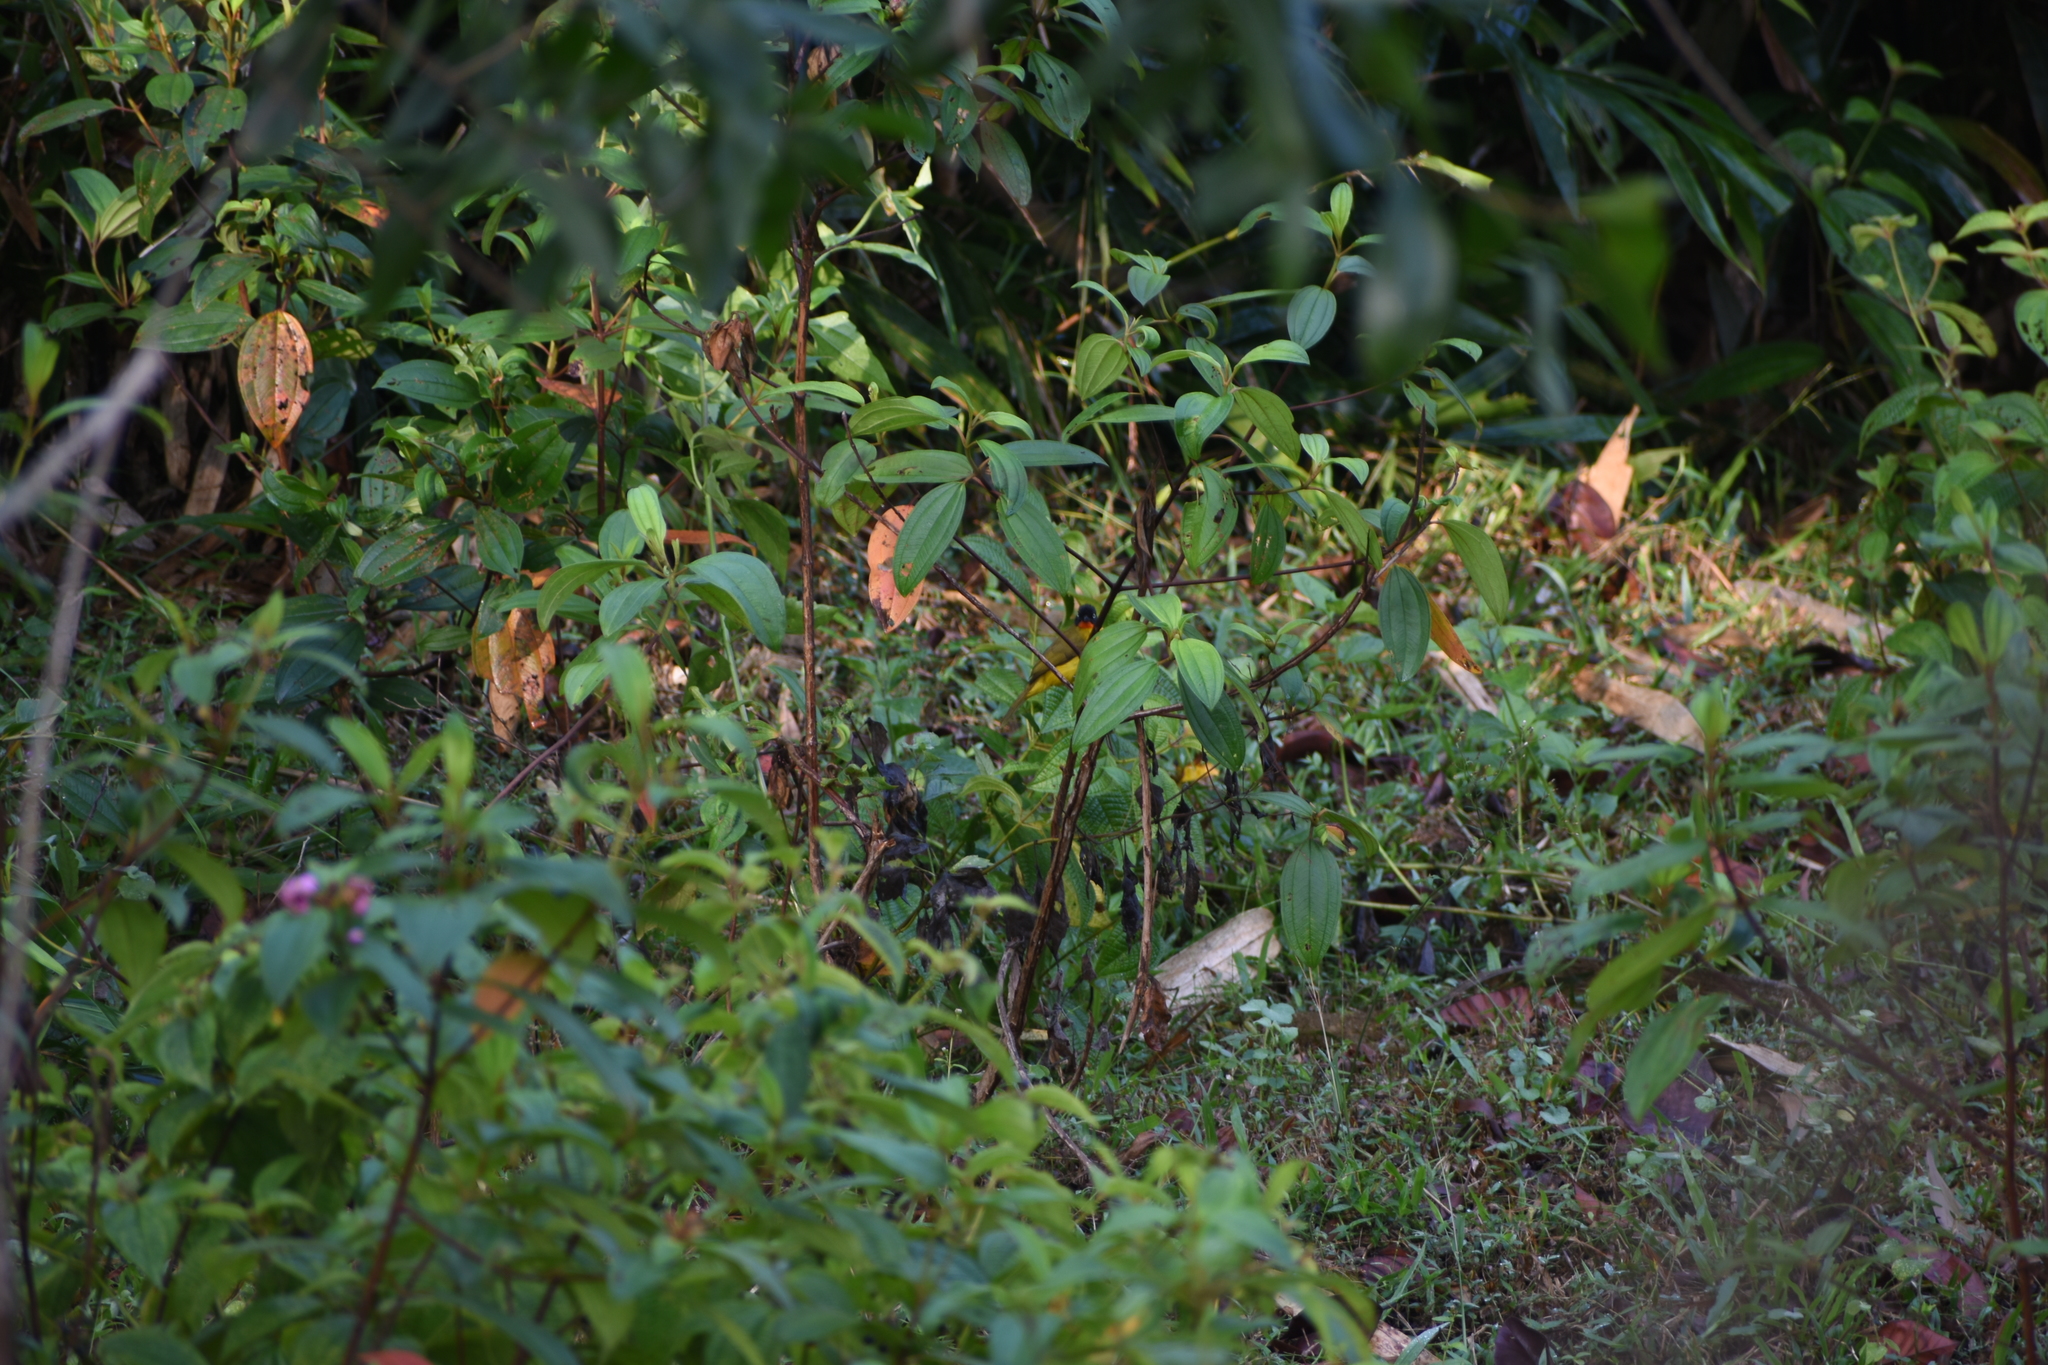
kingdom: Animalia
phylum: Chordata
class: Aves
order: Passeriformes
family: Pycnonotidae
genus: Pycnonotus
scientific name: Pycnonotus gularis
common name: Flame-throated bulbul
